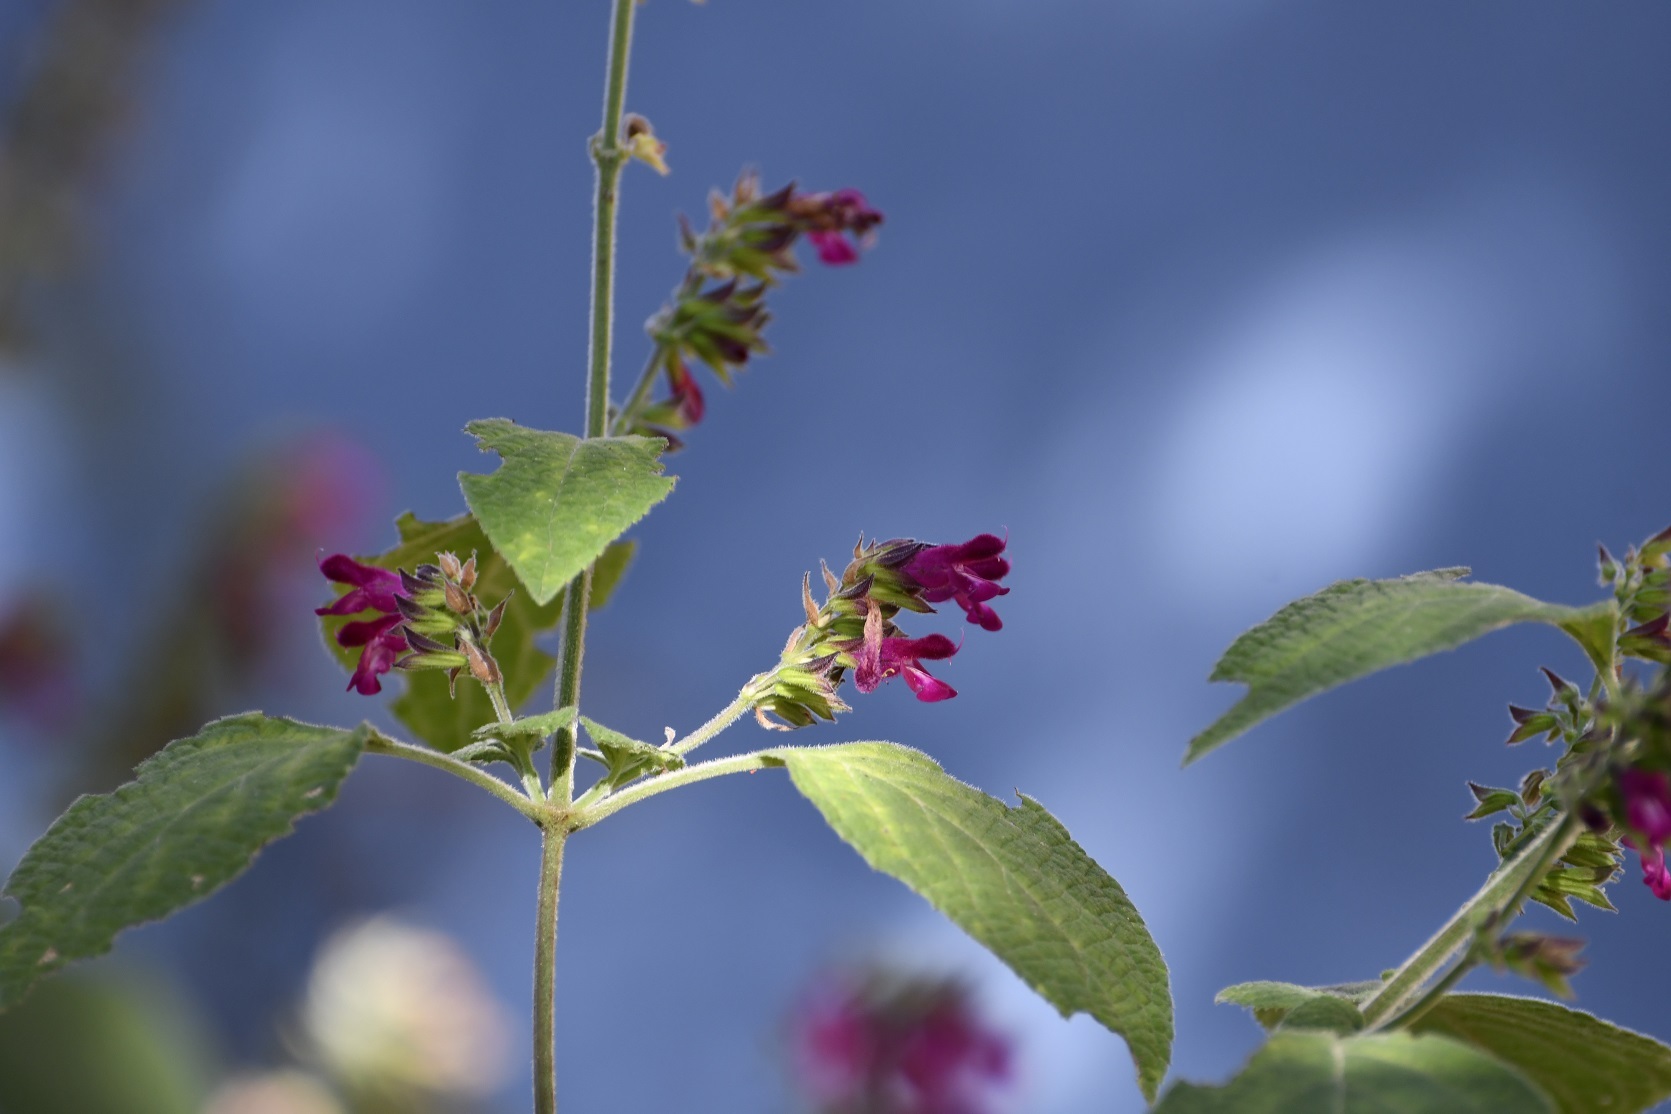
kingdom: Plantae
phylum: Tracheophyta
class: Magnoliopsida
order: Lamiales
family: Lamiaceae
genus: Salvia
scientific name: Salvia chiapensis
